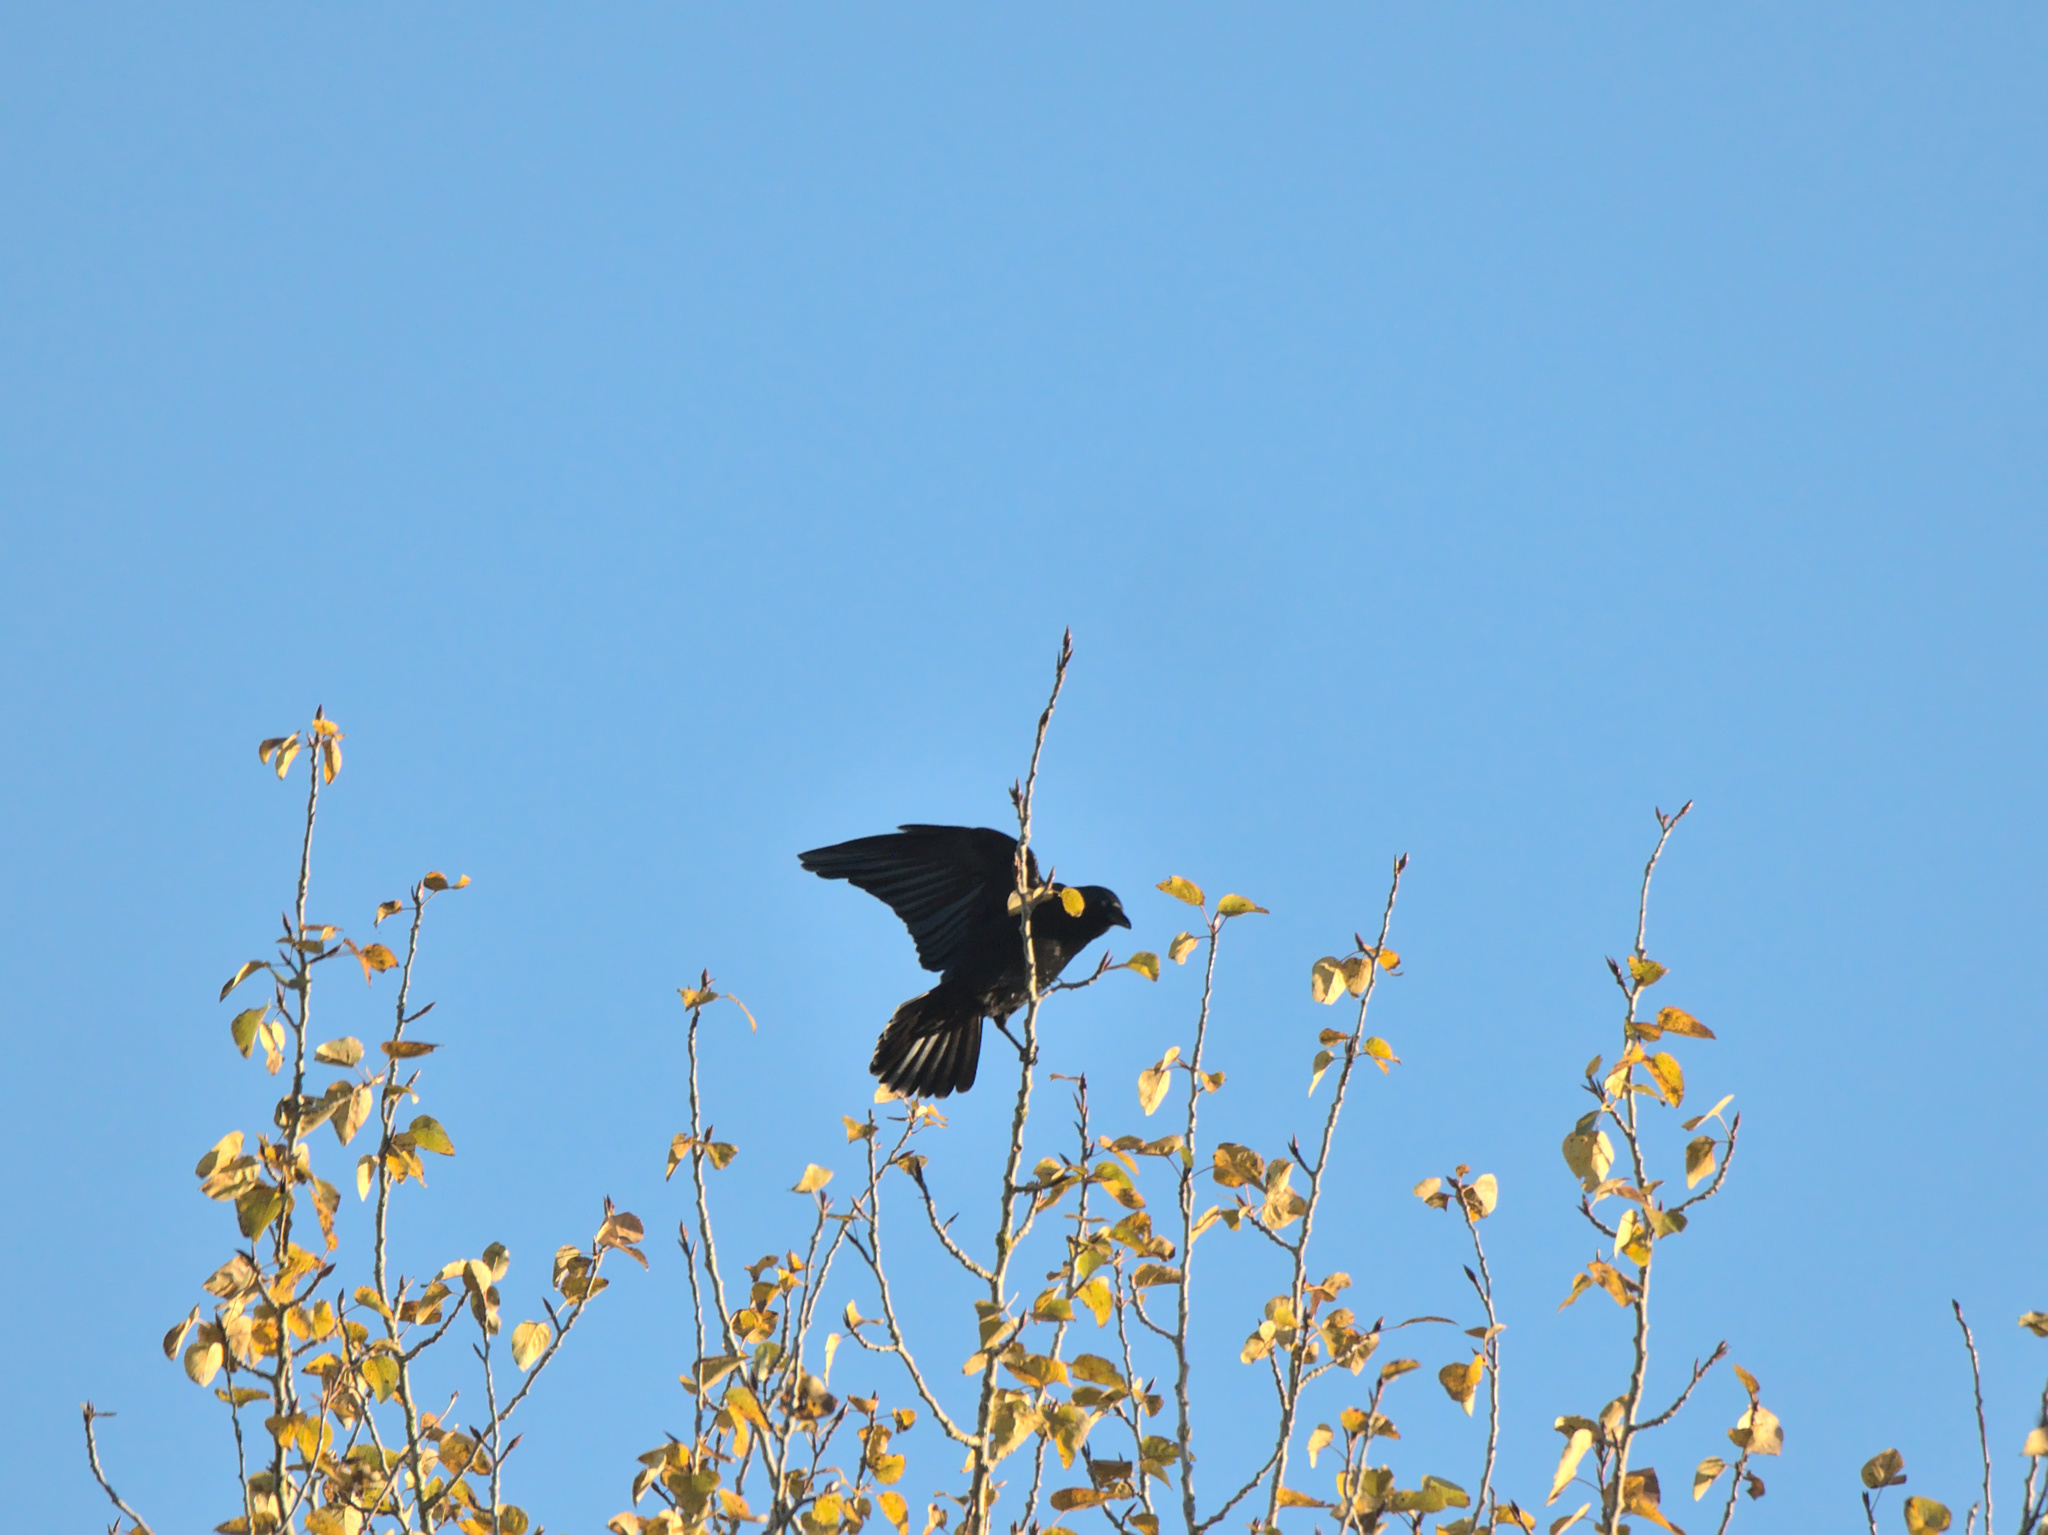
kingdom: Animalia
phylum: Chordata
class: Aves
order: Passeriformes
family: Corvidae
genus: Corvus
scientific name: Corvus brachyrhynchos
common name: American crow
